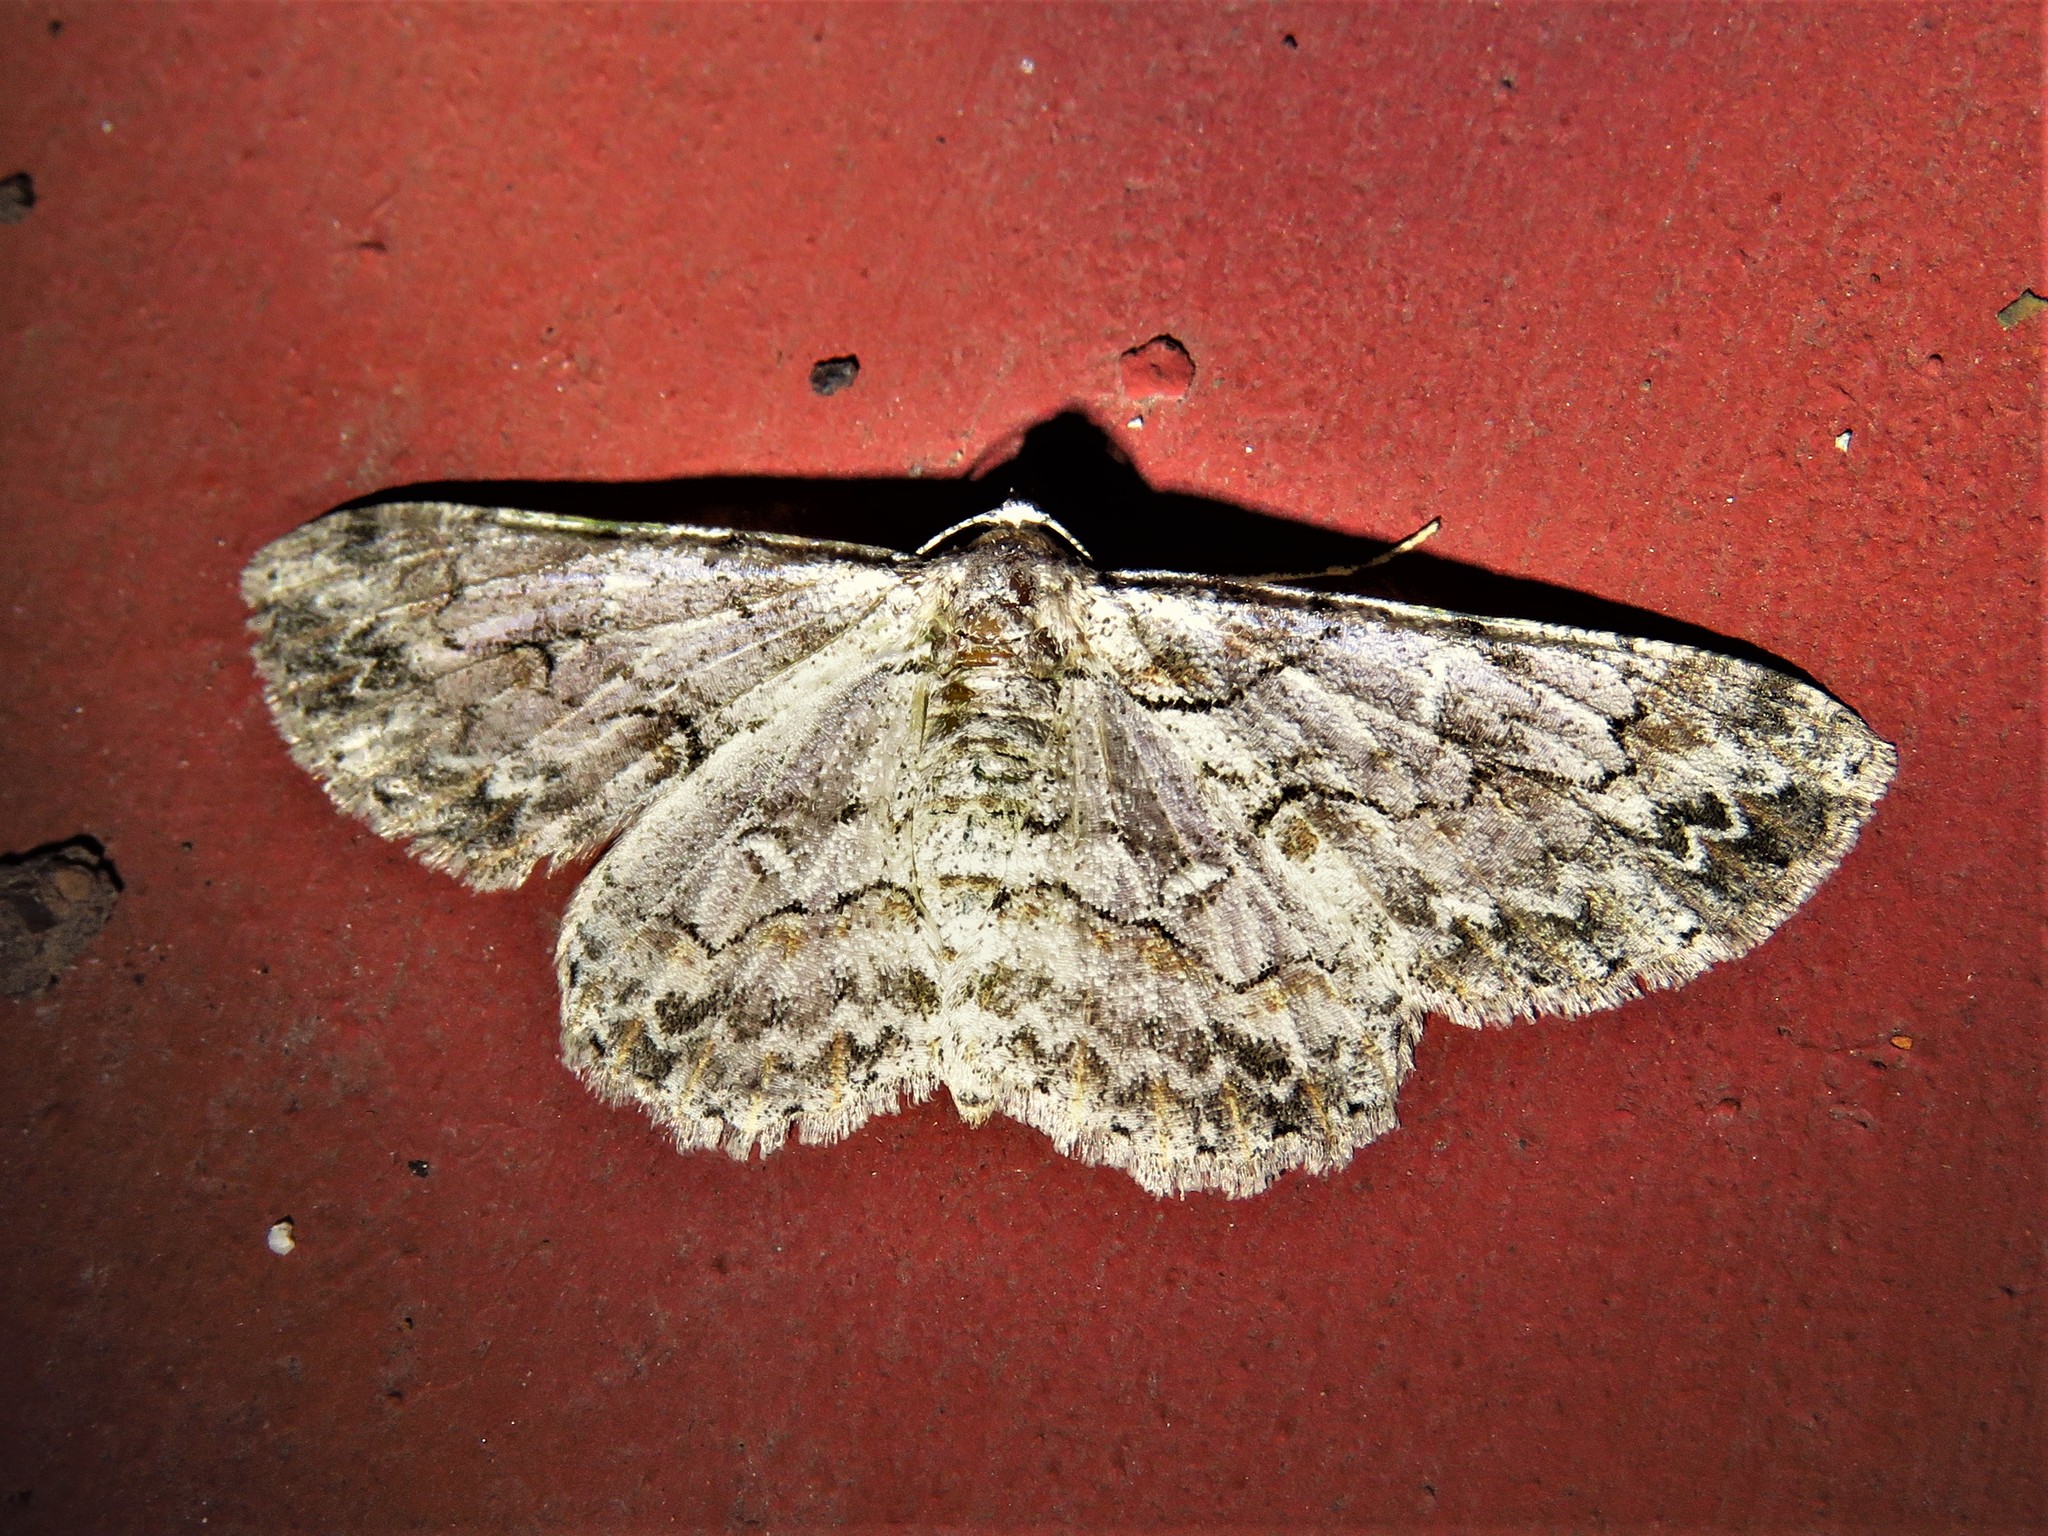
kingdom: Animalia
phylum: Arthropoda
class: Insecta
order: Lepidoptera
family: Geometridae
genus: Iridopsis
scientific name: Iridopsis defectaria
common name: Brown-shaded gray
